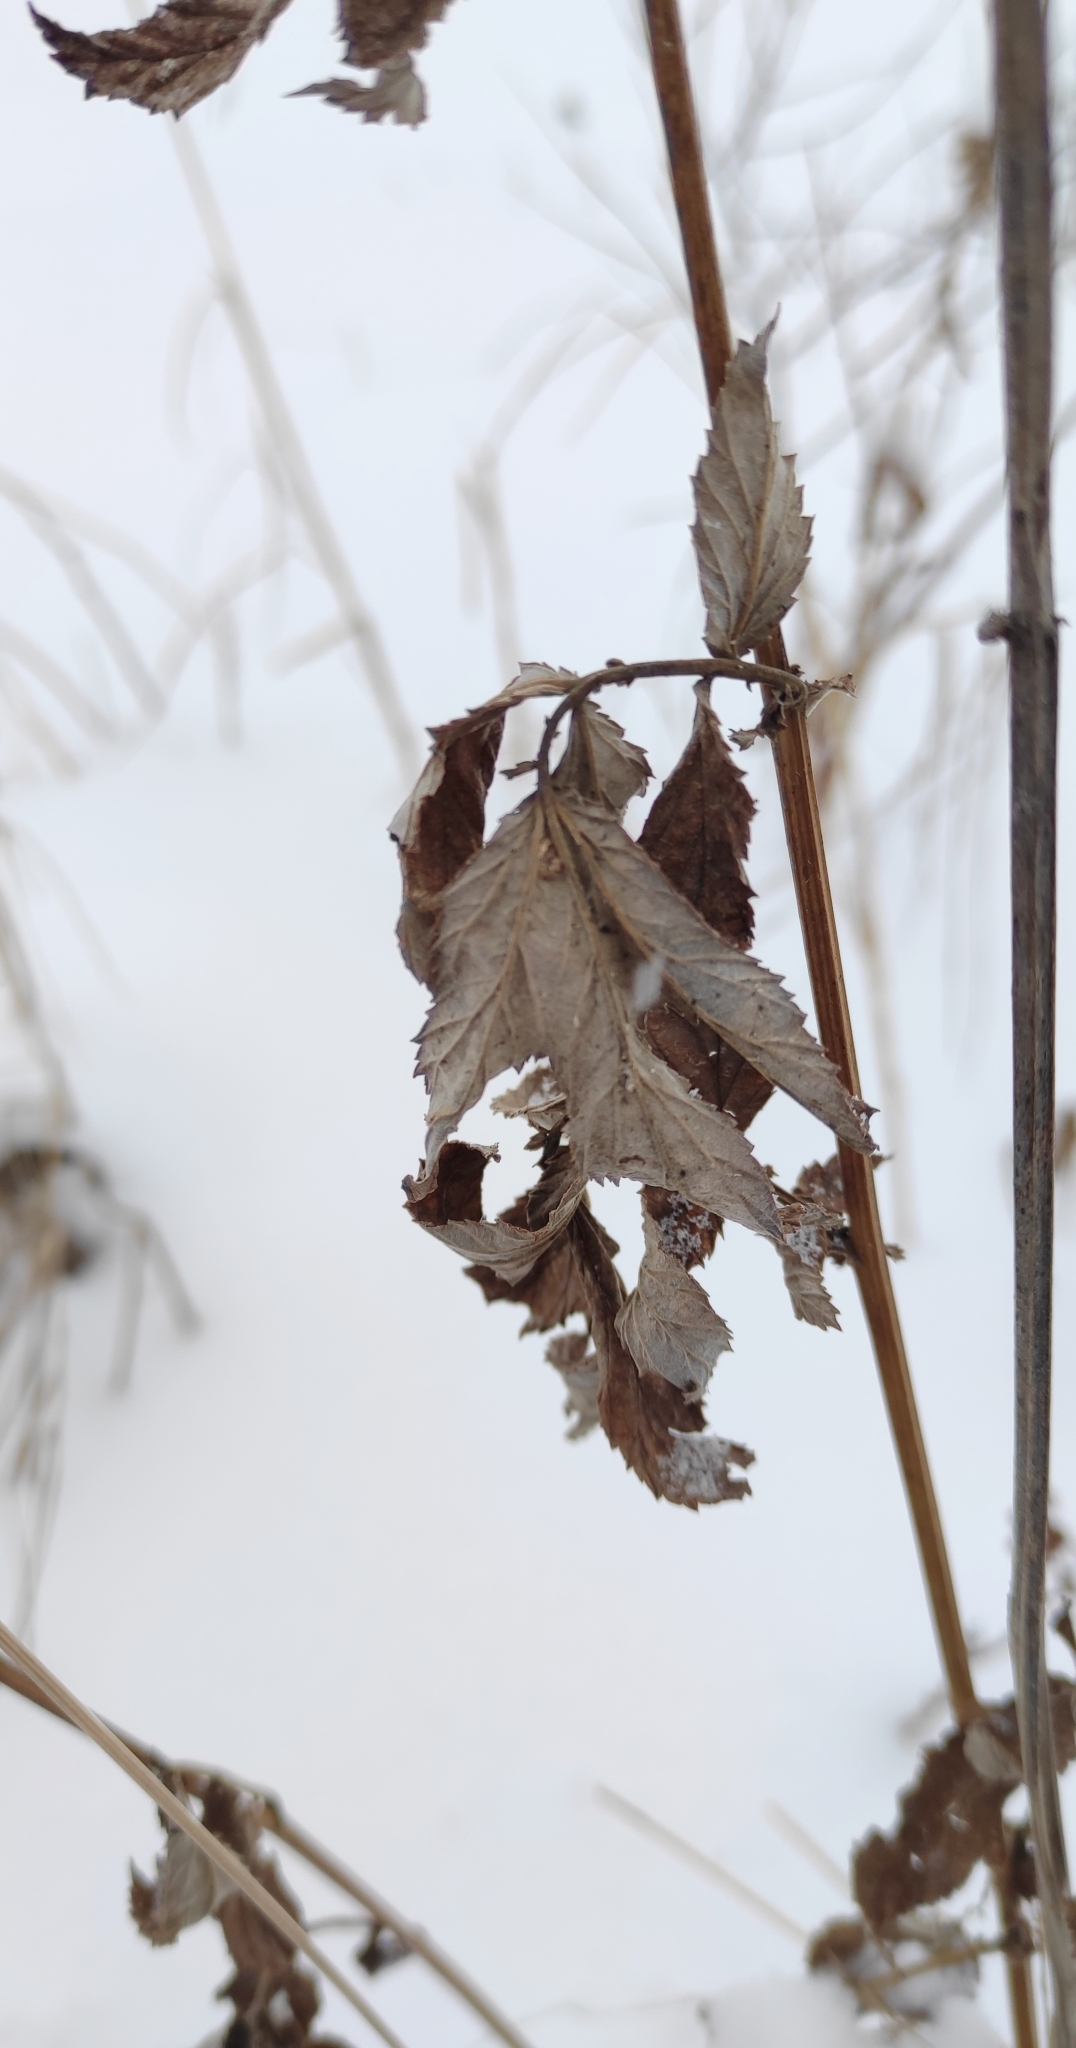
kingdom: Plantae
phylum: Tracheophyta
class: Magnoliopsida
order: Rosales
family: Rosaceae
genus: Filipendula
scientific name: Filipendula ulmaria
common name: Meadowsweet
